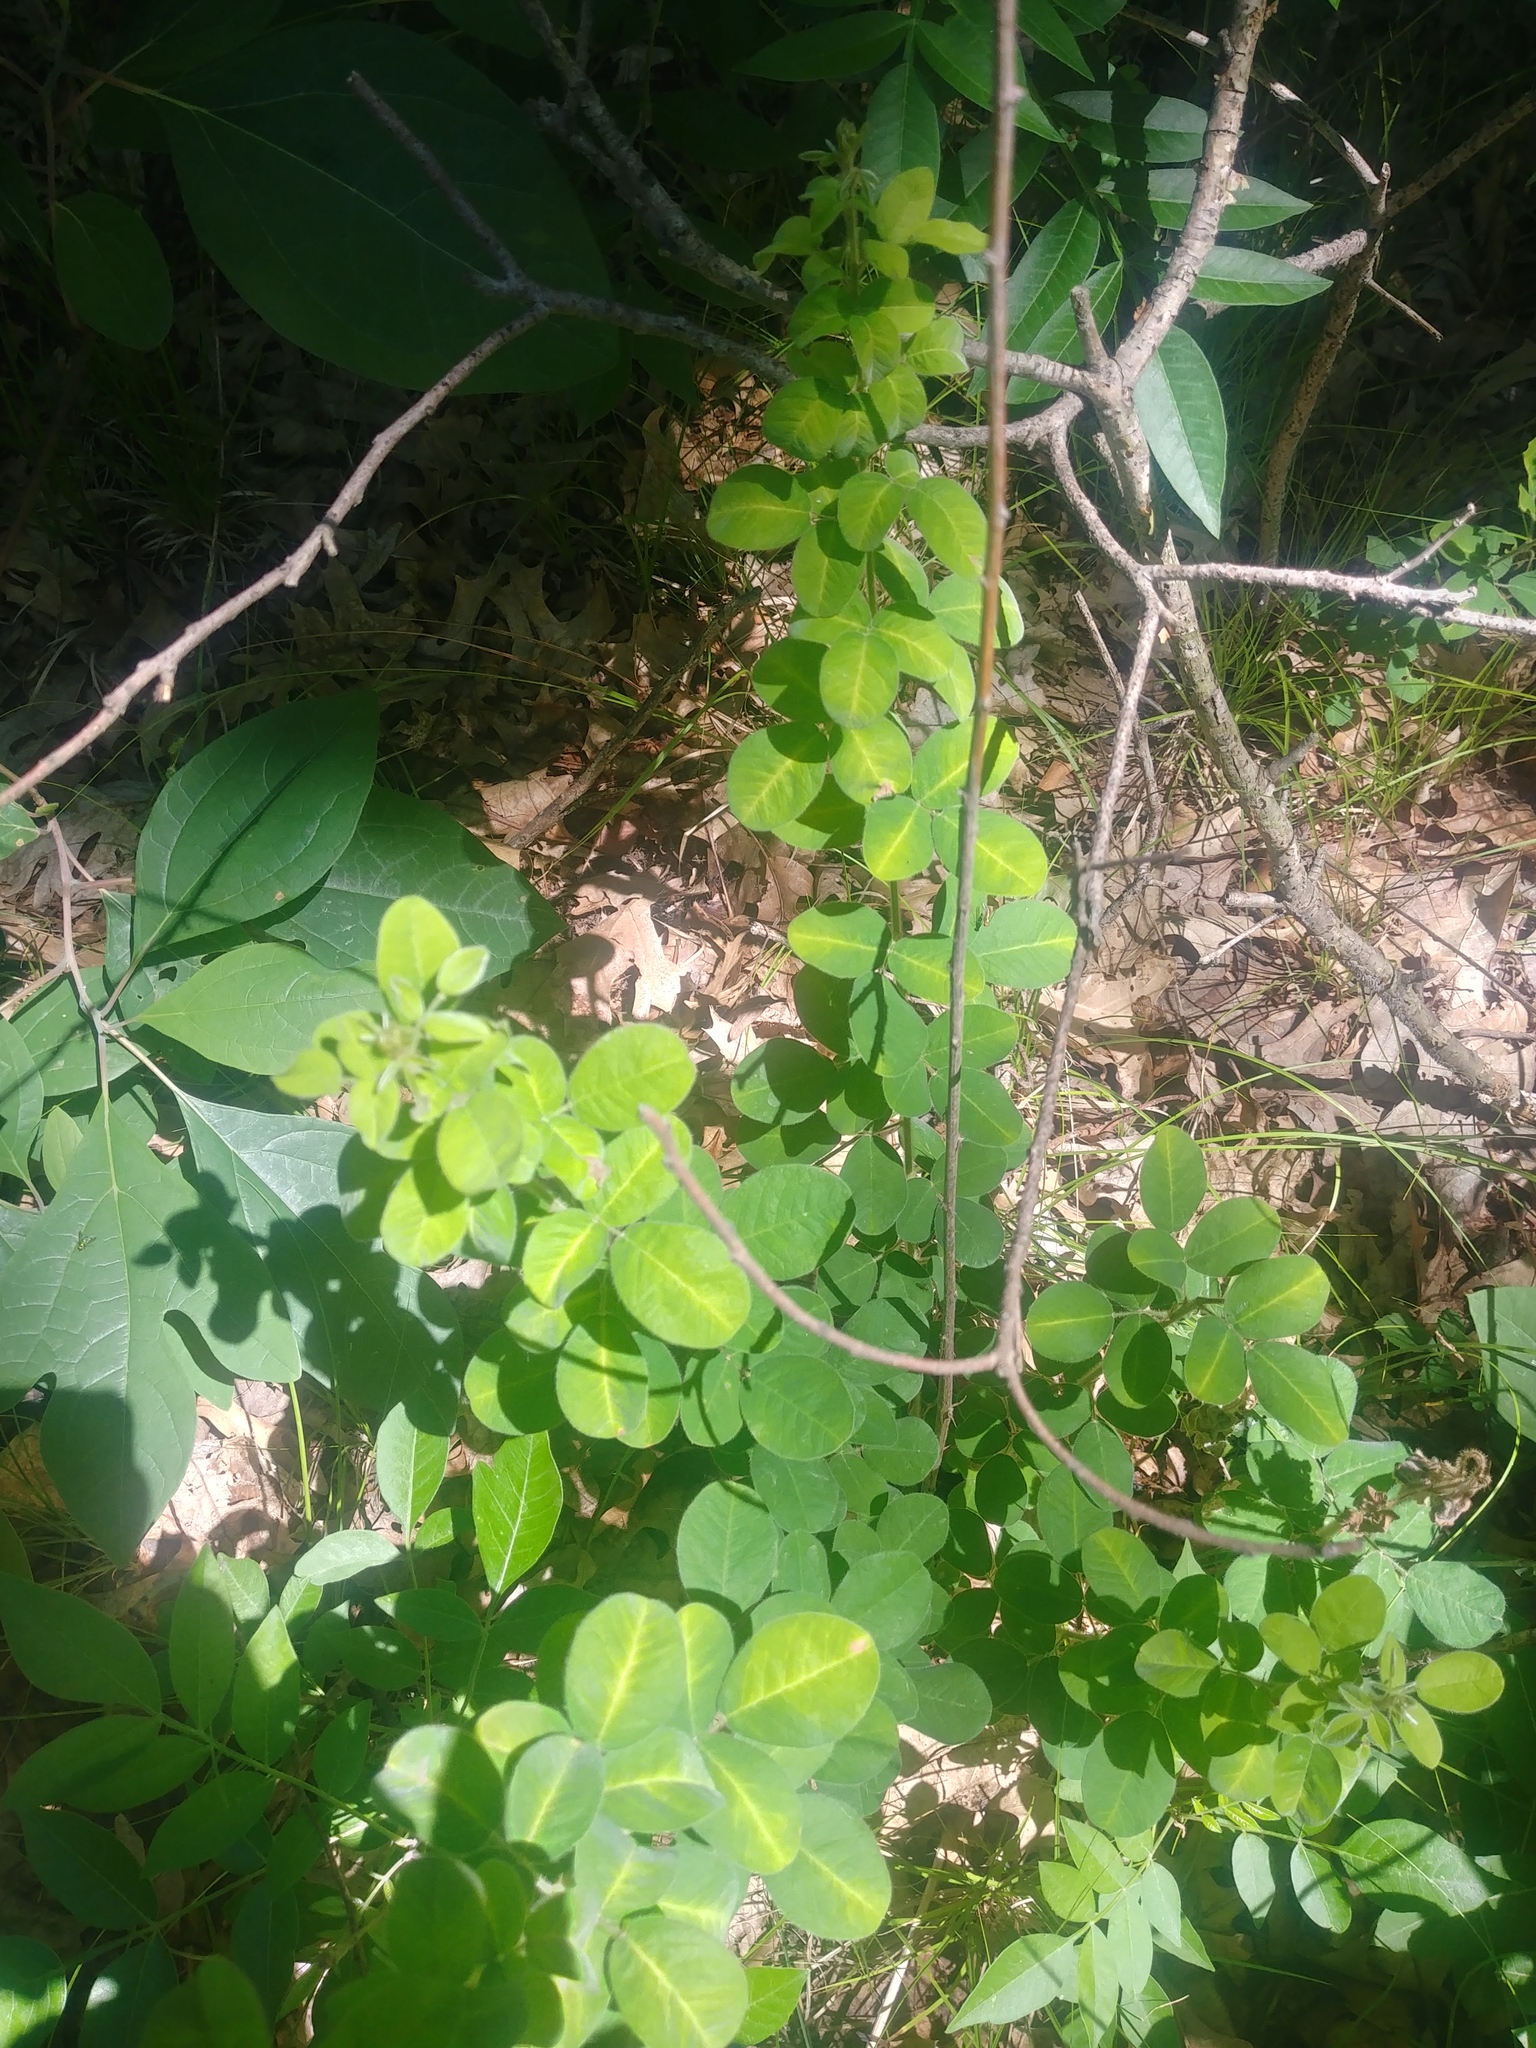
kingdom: Plantae
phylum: Tracheophyta
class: Magnoliopsida
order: Fabales
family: Fabaceae
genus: Lespedeza
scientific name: Lespedeza hirta
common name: Hairy lespedeza
